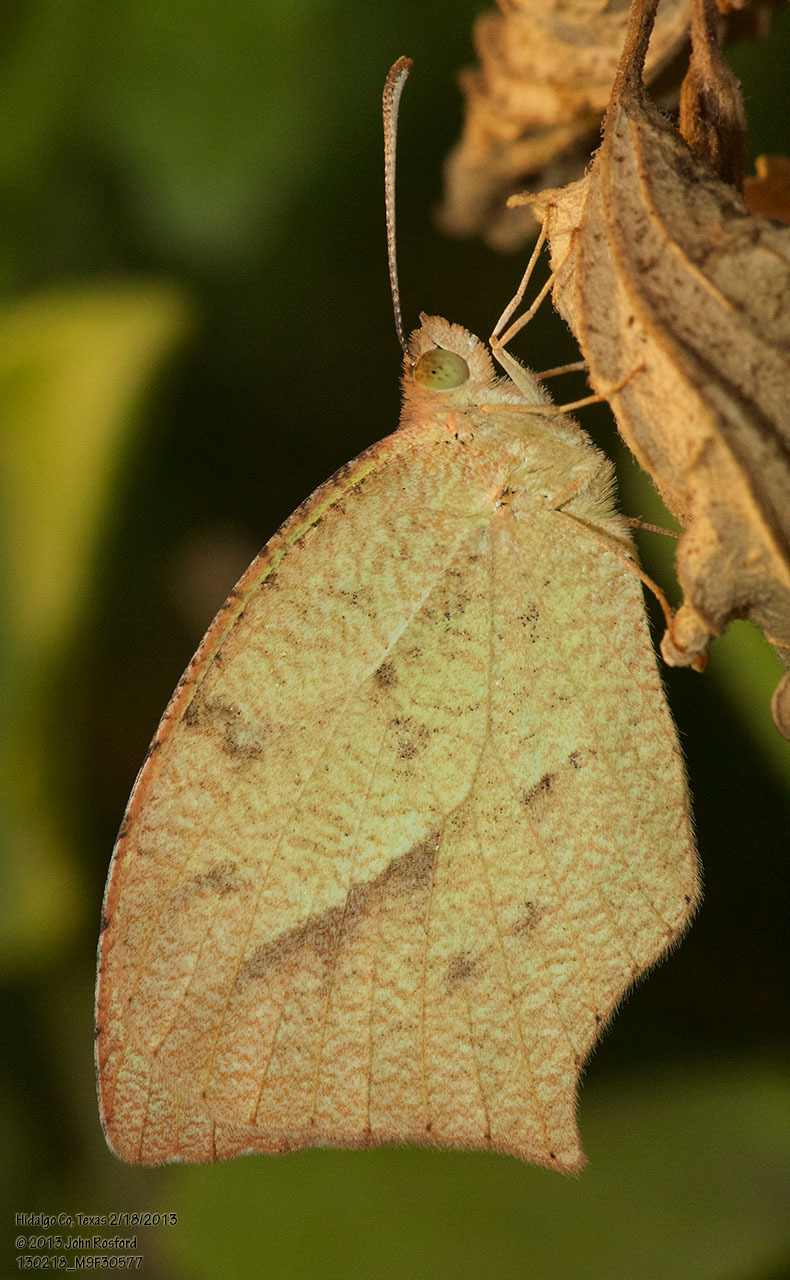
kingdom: Animalia
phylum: Arthropoda
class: Insecta
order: Lepidoptera
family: Pieridae
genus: Abaeis
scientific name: Abaeis mexicana
